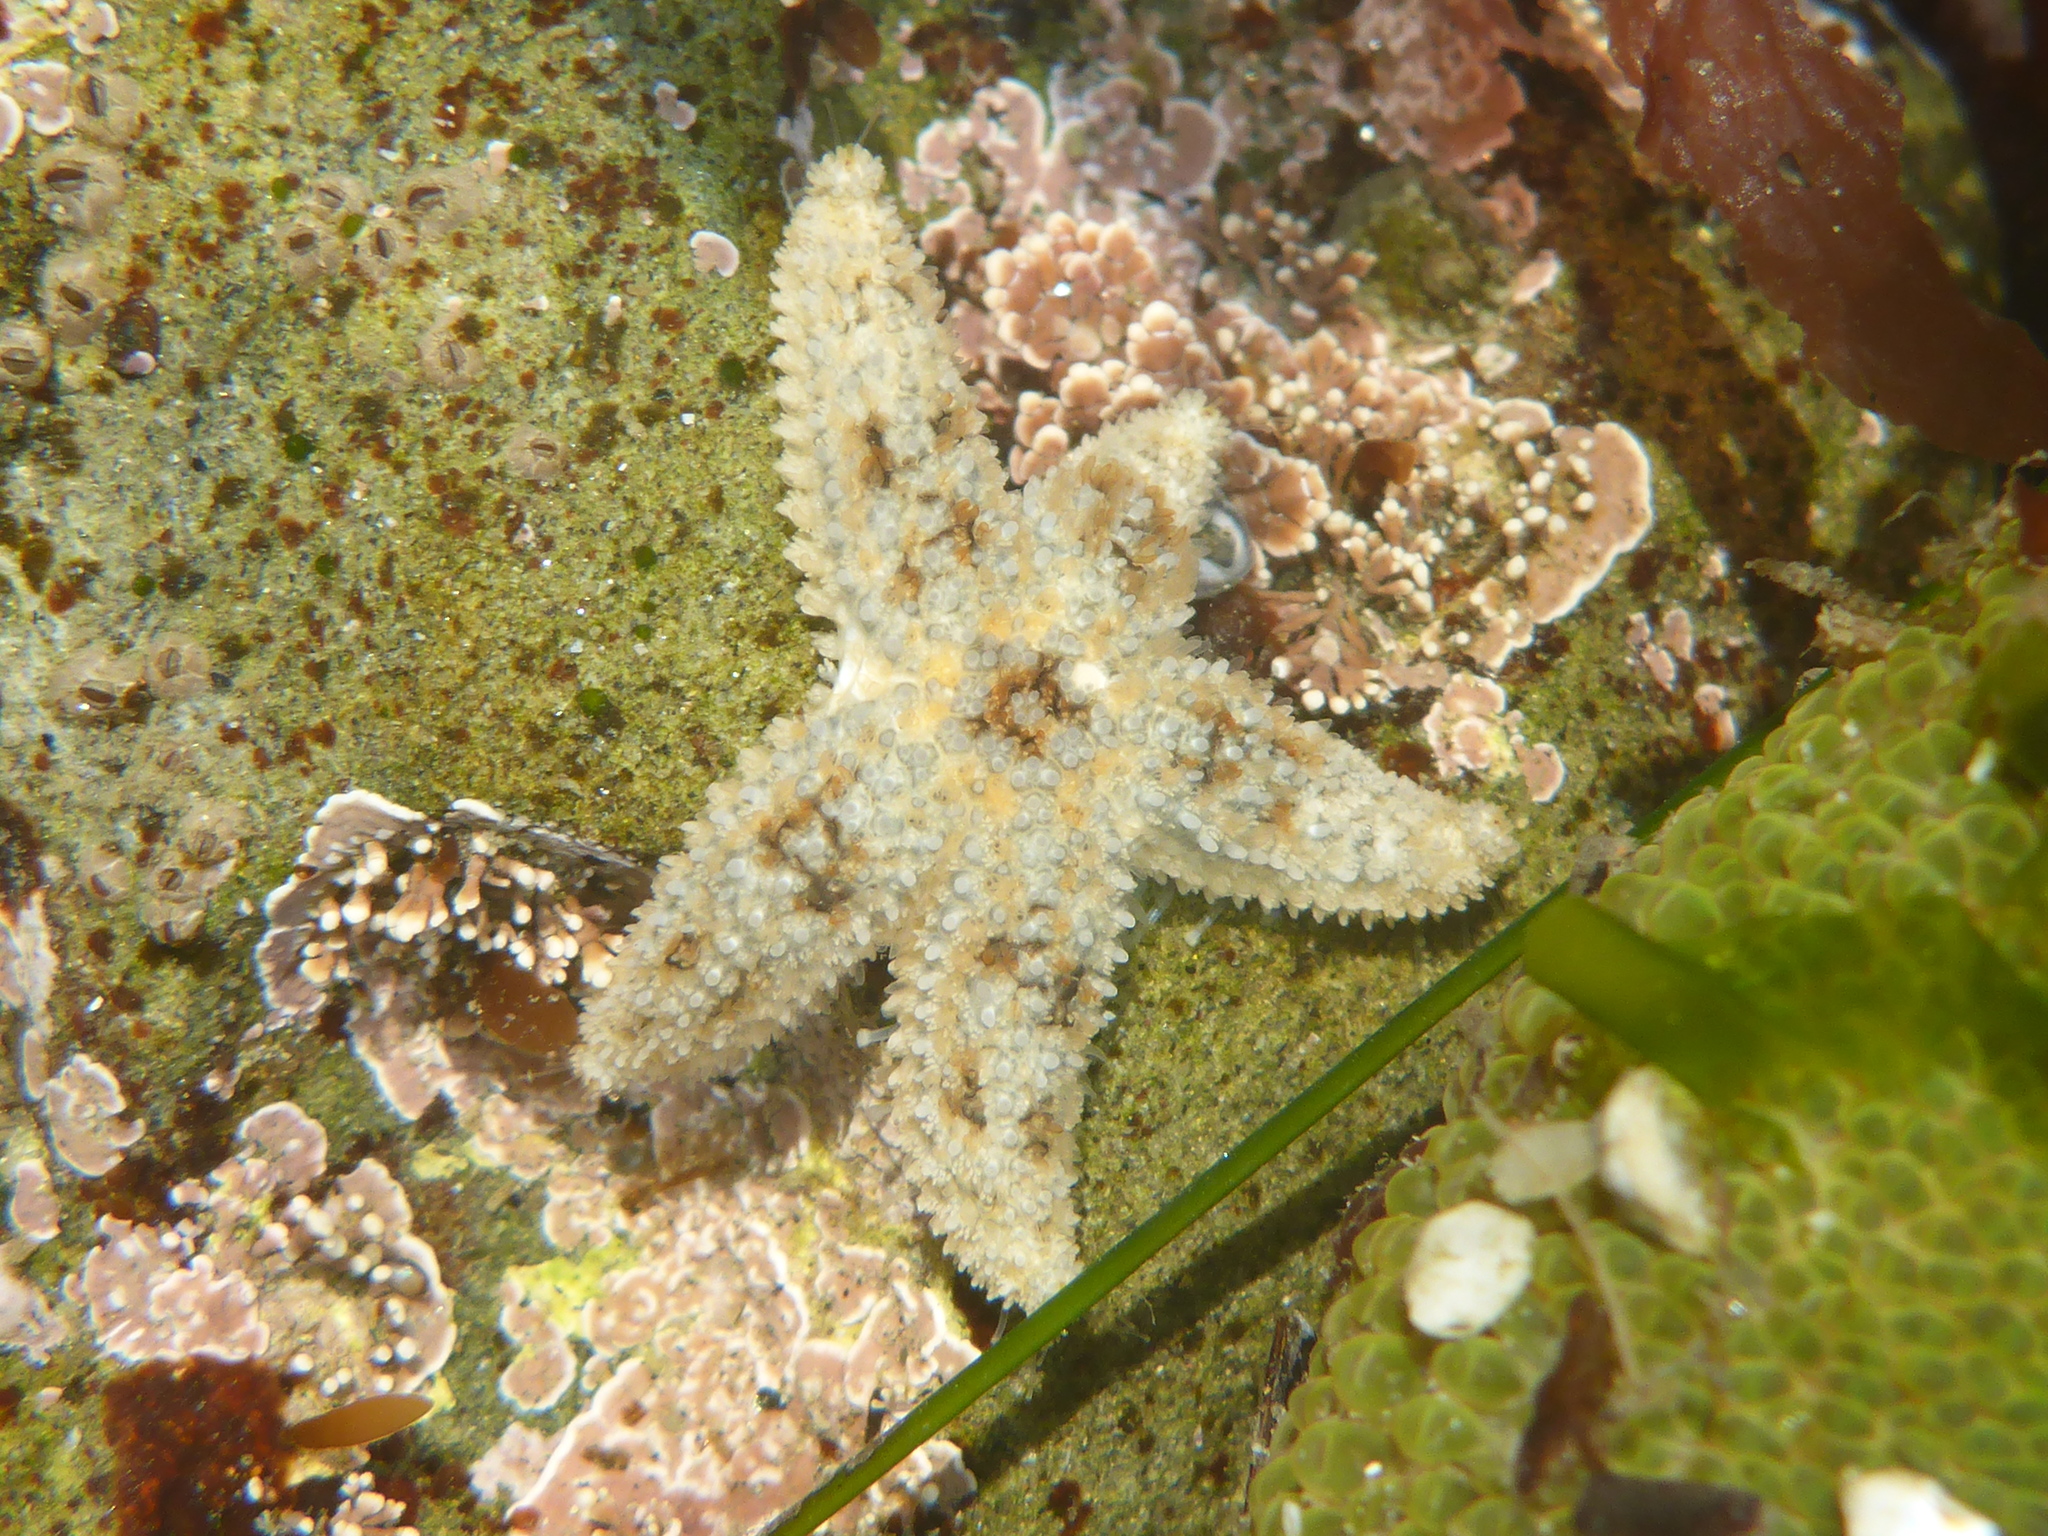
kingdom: Animalia
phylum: Echinodermata
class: Asteroidea
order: Forcipulatida
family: Asteriidae
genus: Pisaster
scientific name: Pisaster giganteus
